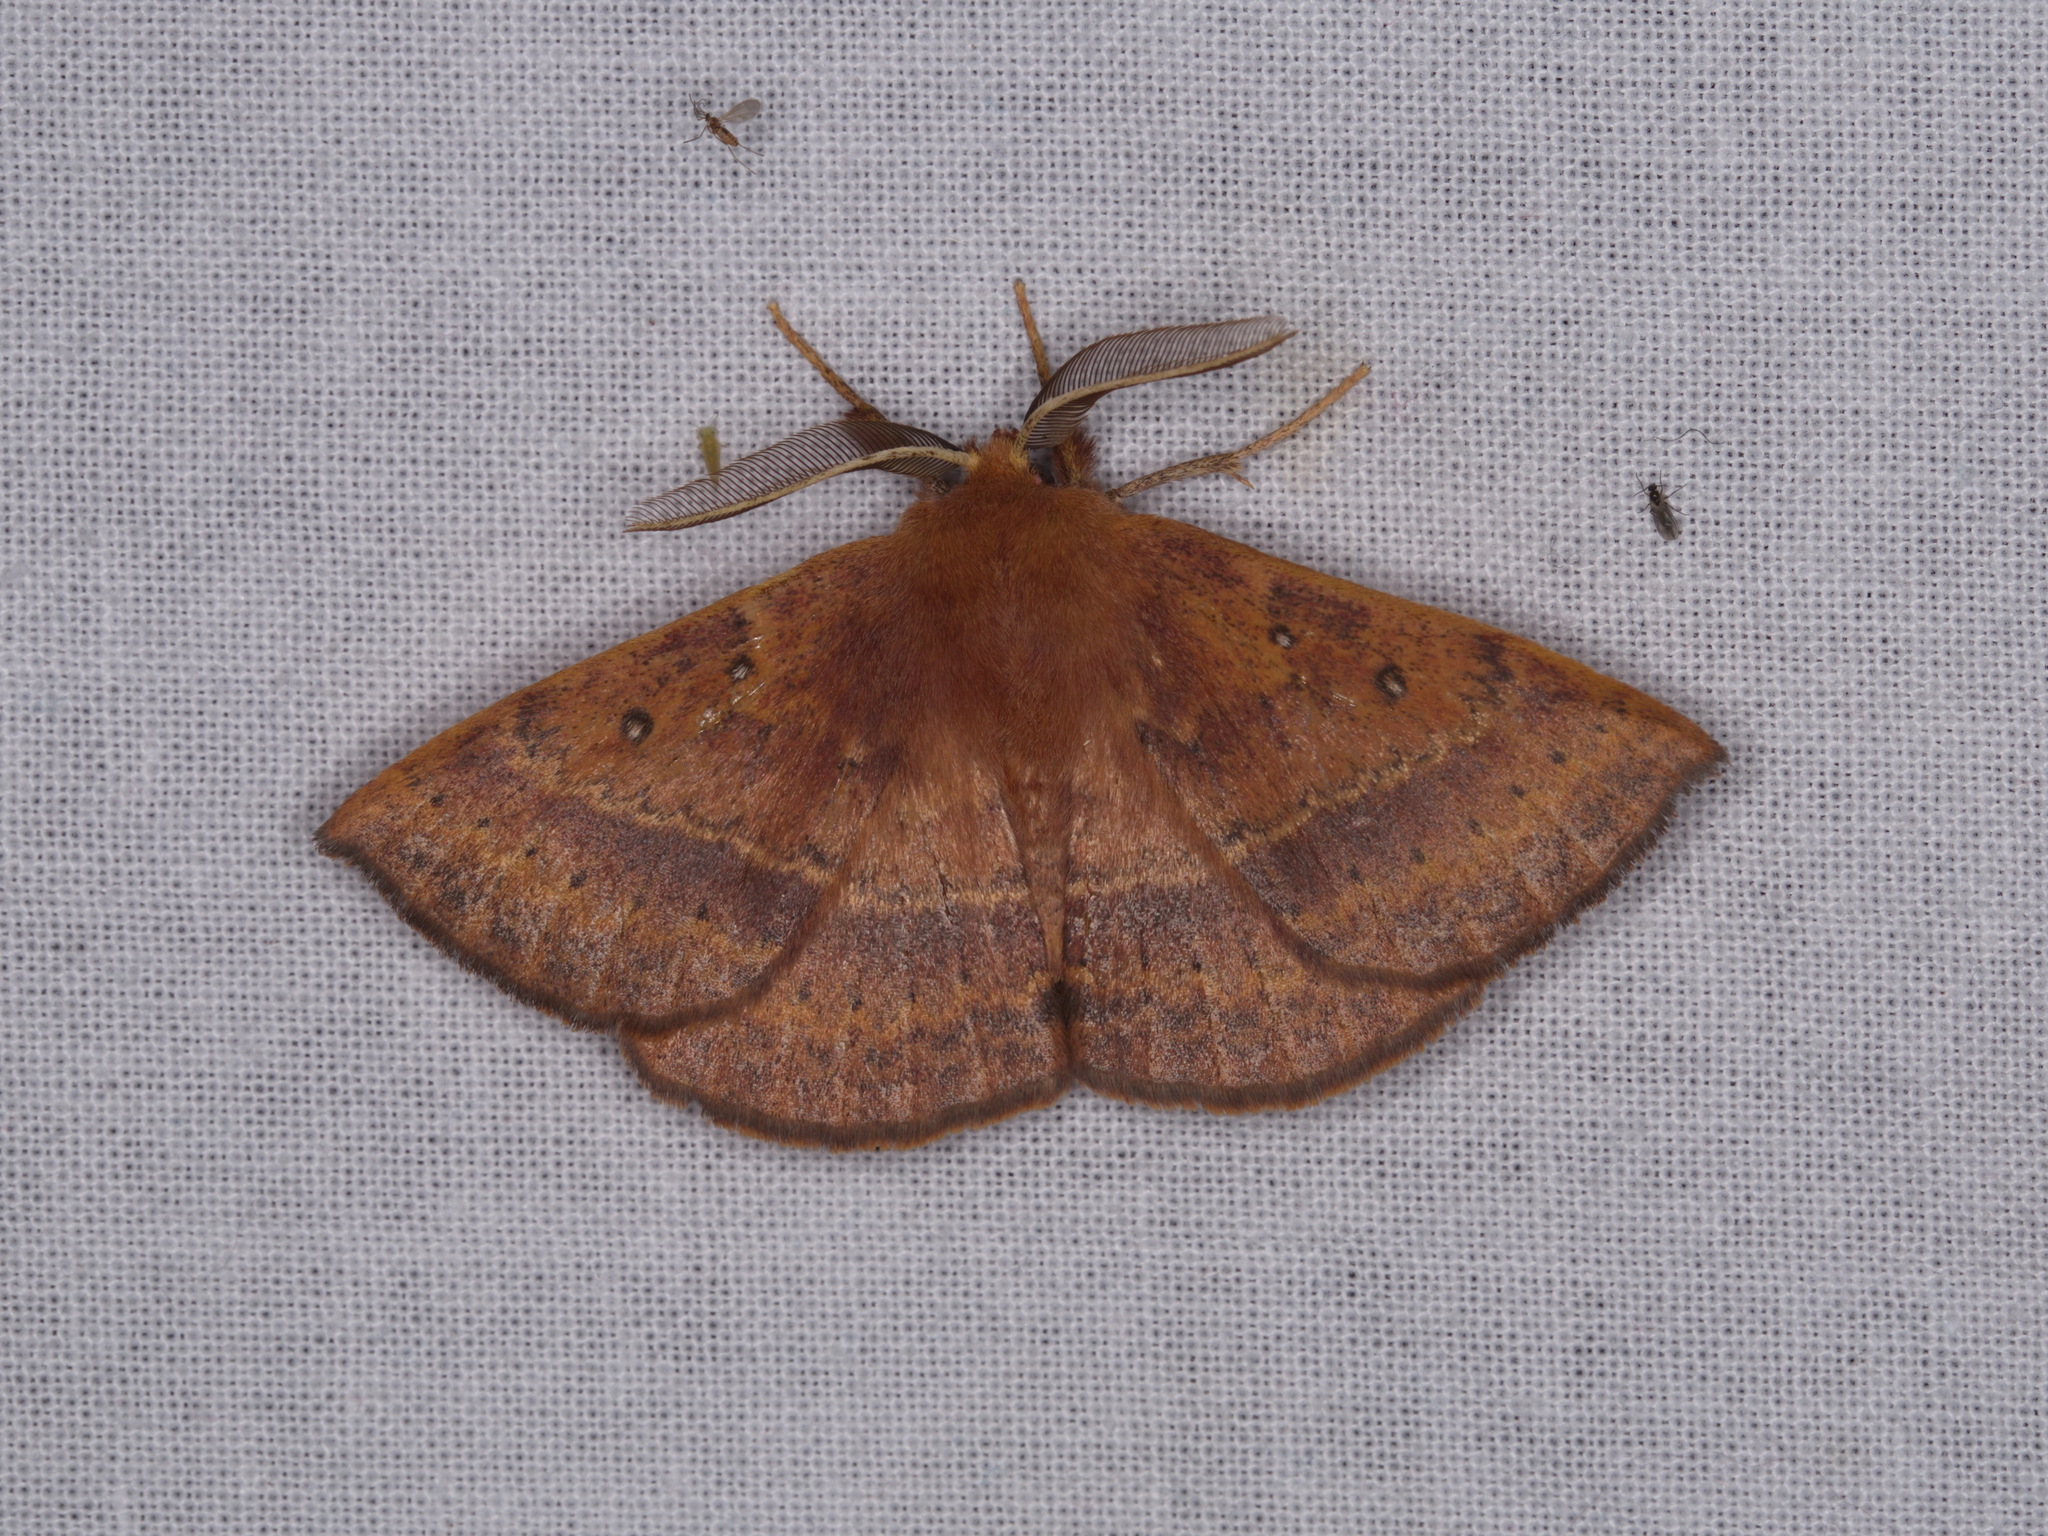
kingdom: Animalia
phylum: Arthropoda
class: Insecta
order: Lepidoptera
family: Anthelidae
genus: Anthela
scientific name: Anthela repleta
